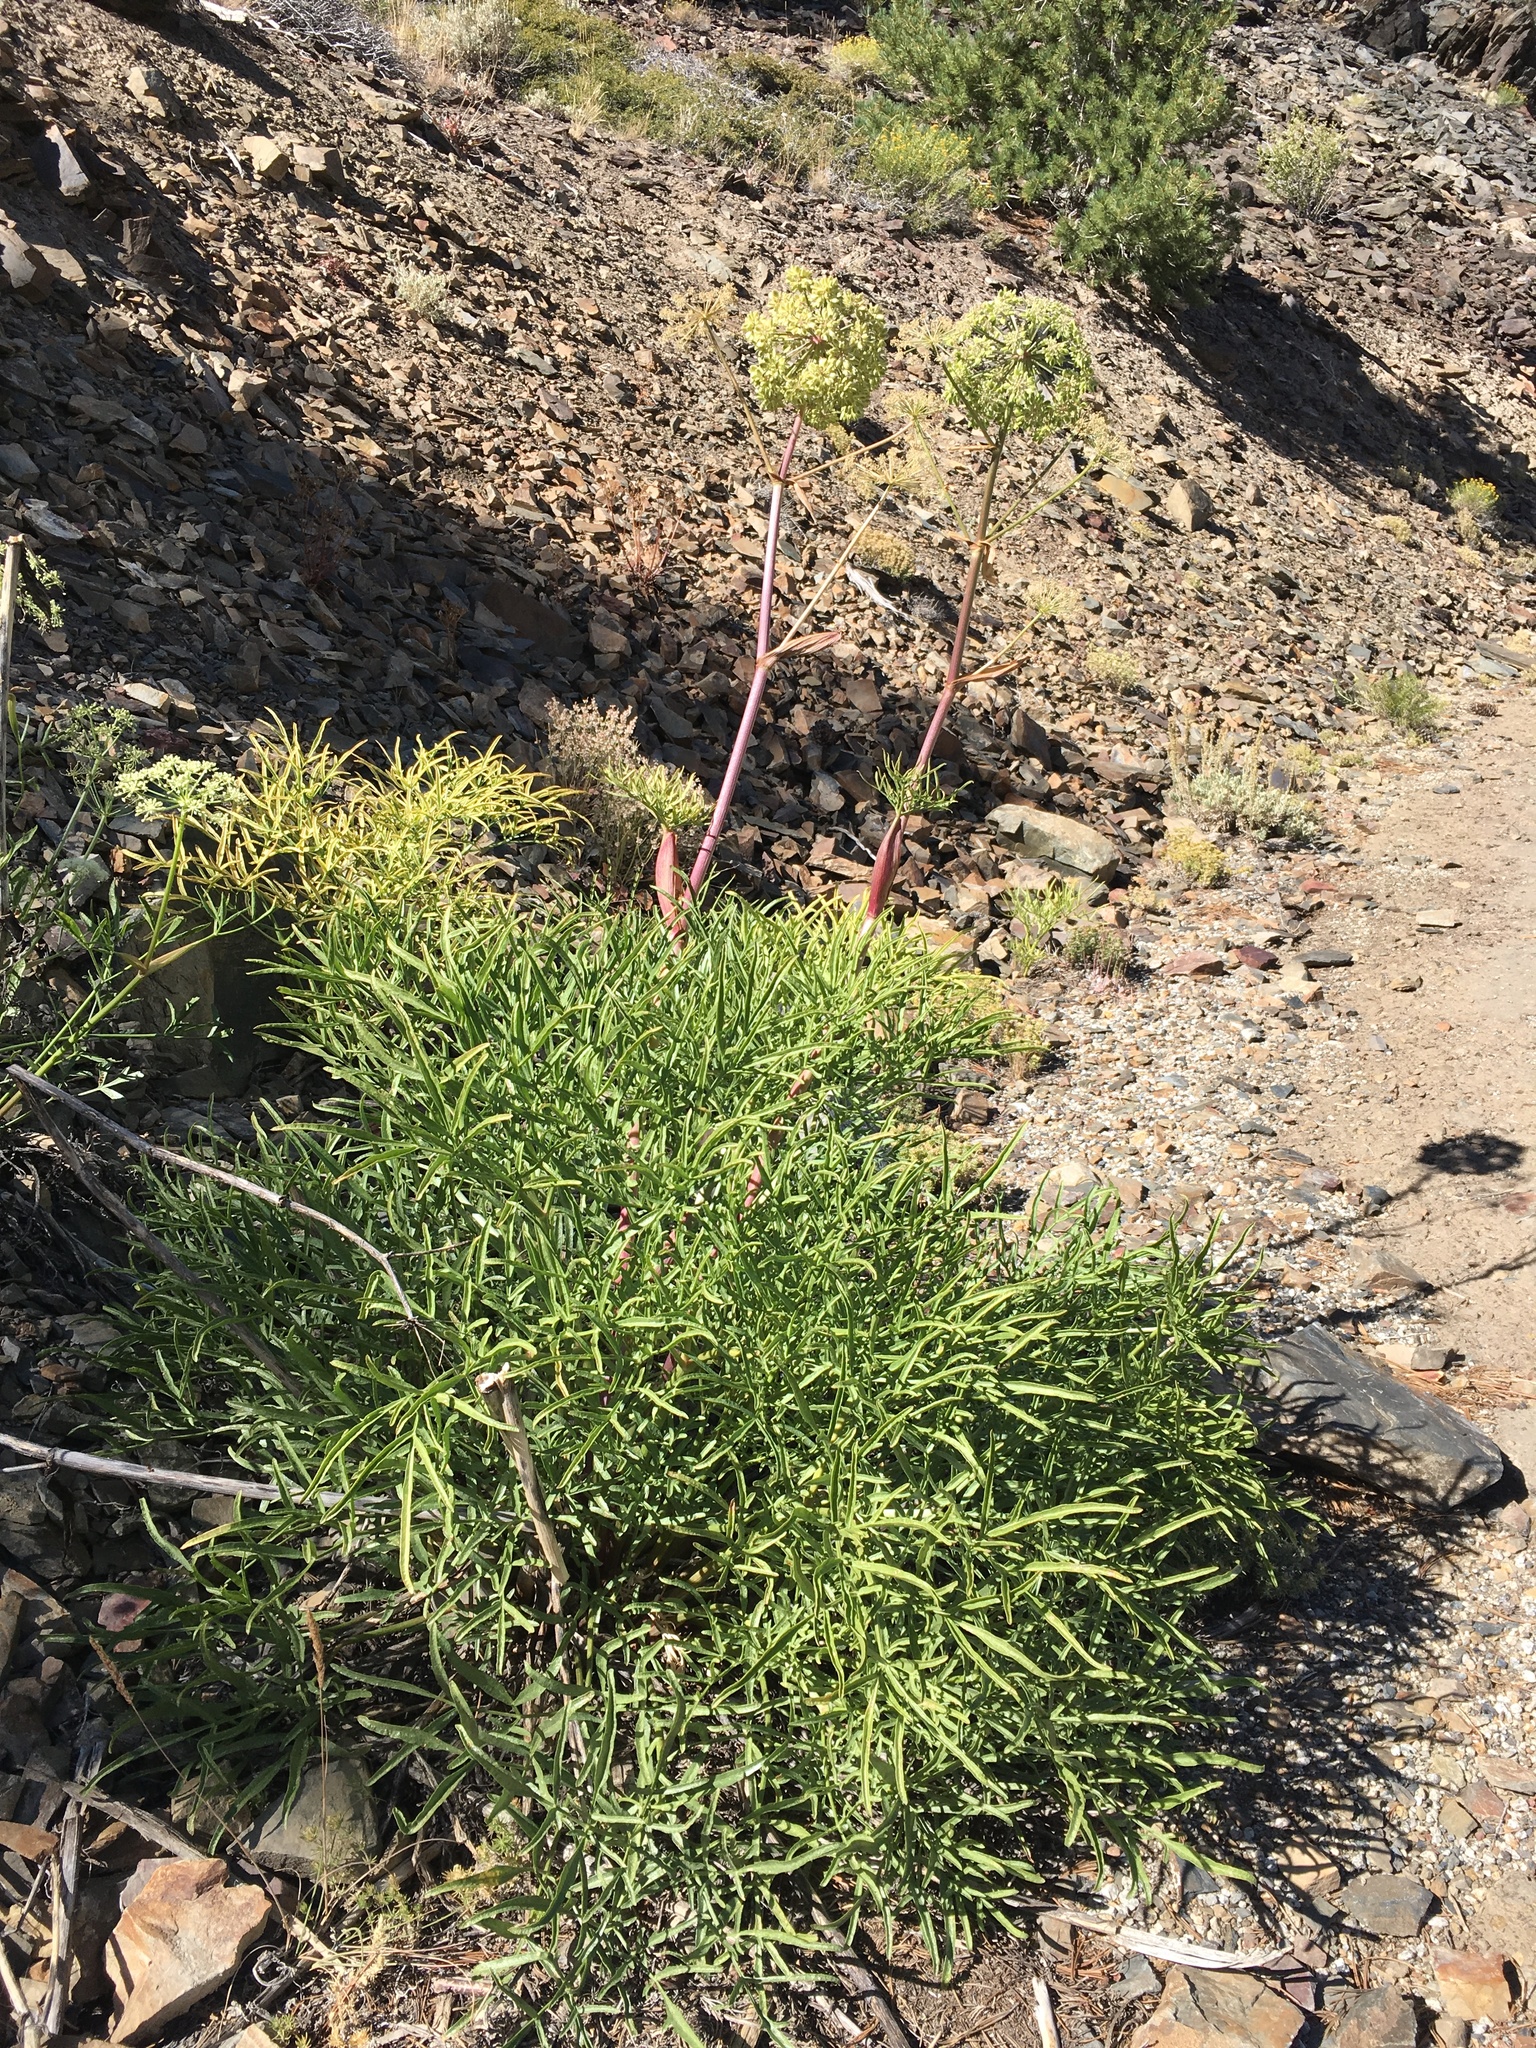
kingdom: Plantae
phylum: Tracheophyta
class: Magnoliopsida
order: Apiales
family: Apiaceae
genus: Angelica
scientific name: Angelica lineariloba
